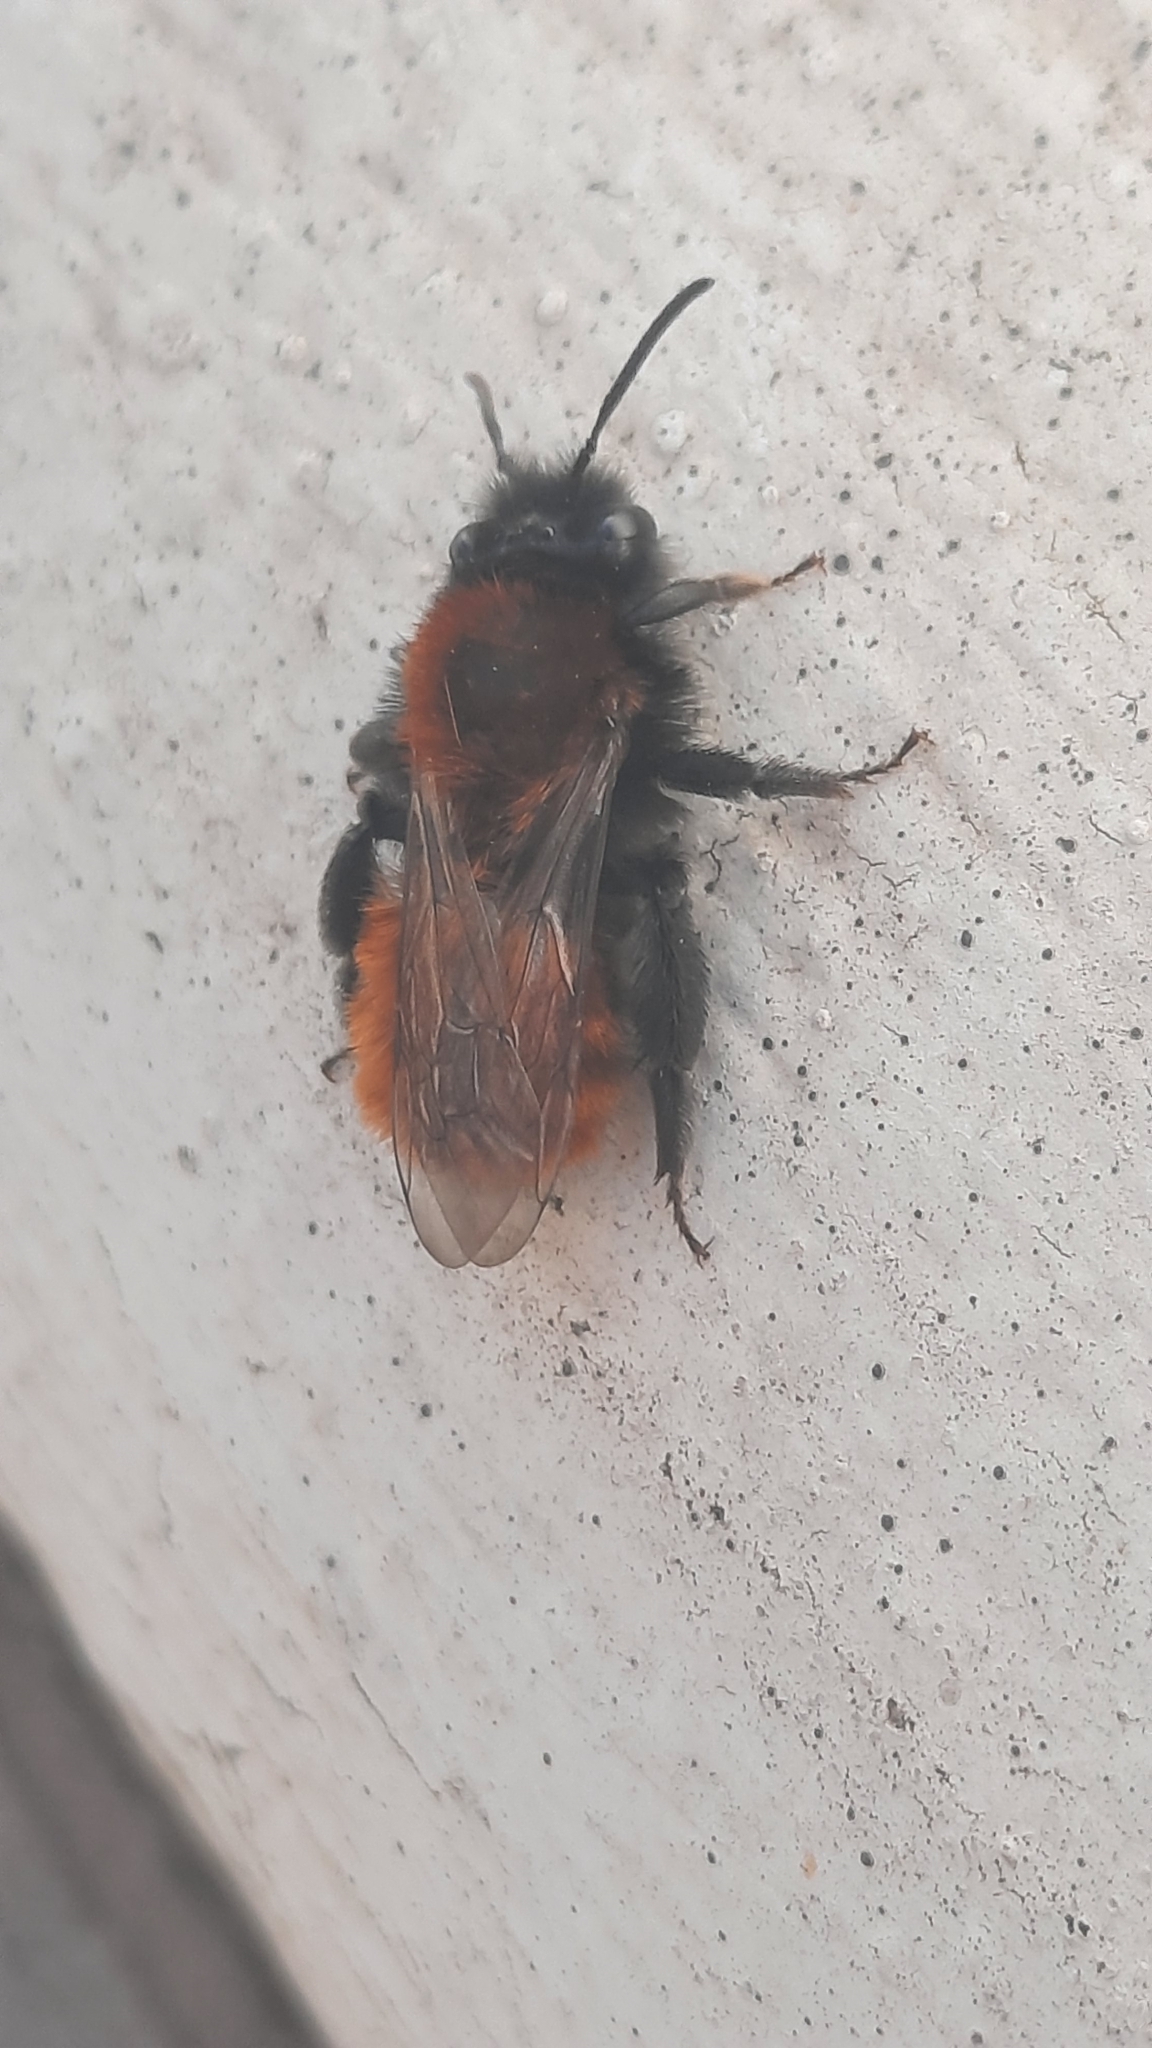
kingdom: Animalia
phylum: Arthropoda
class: Insecta
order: Hymenoptera
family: Andrenidae
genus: Andrena
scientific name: Andrena fulva
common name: Tawny mining bee
